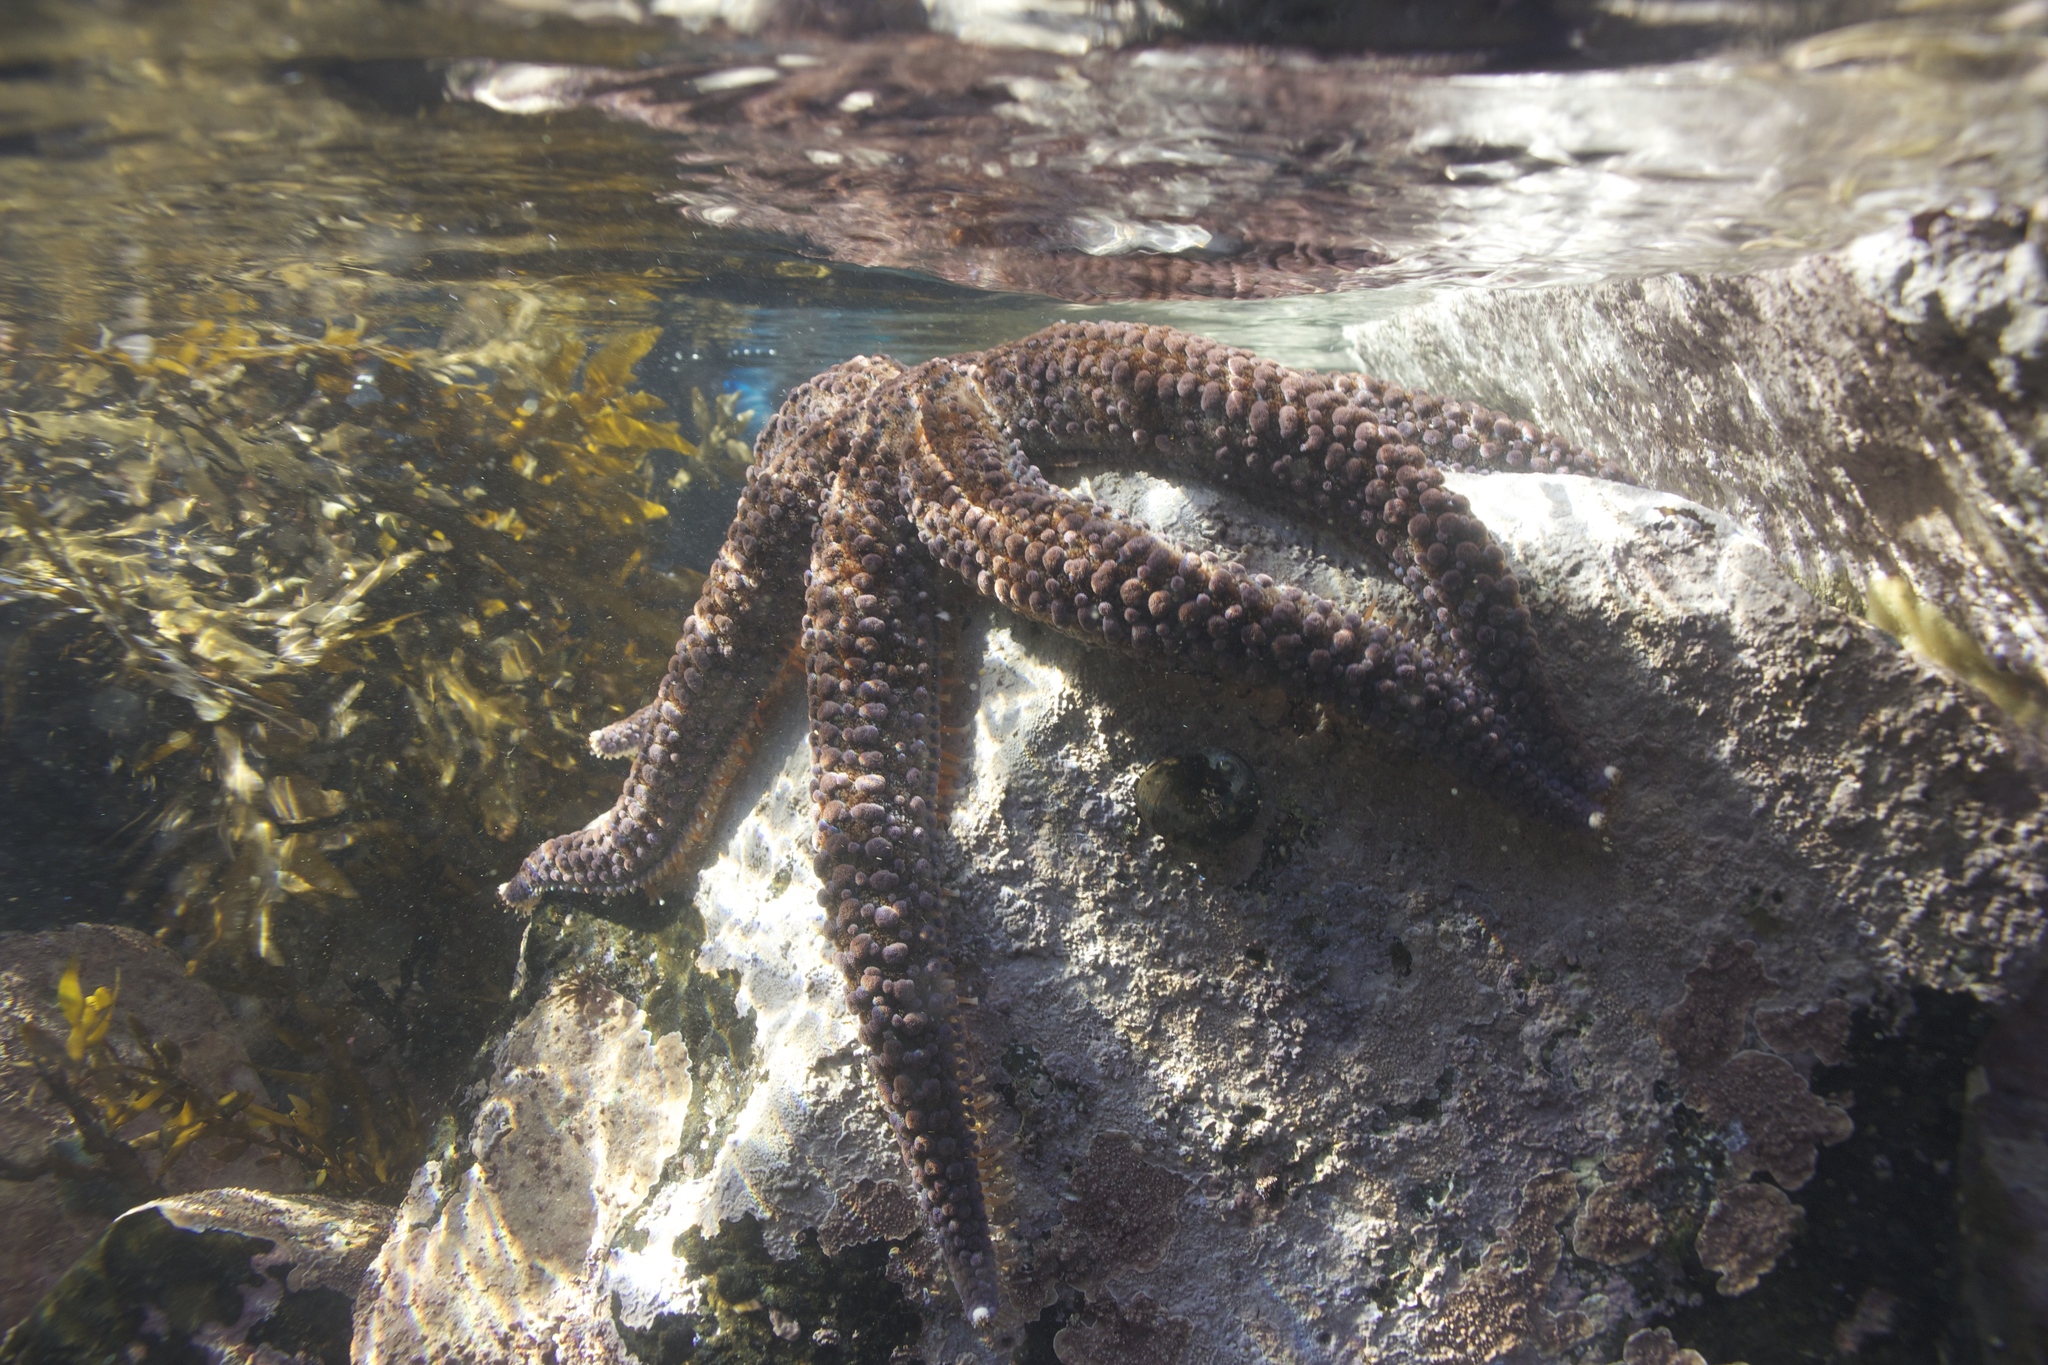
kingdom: Animalia
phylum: Echinodermata
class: Asteroidea
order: Forcipulatida
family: Asteriidae
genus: Astrostole
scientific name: Astrostole scabra
